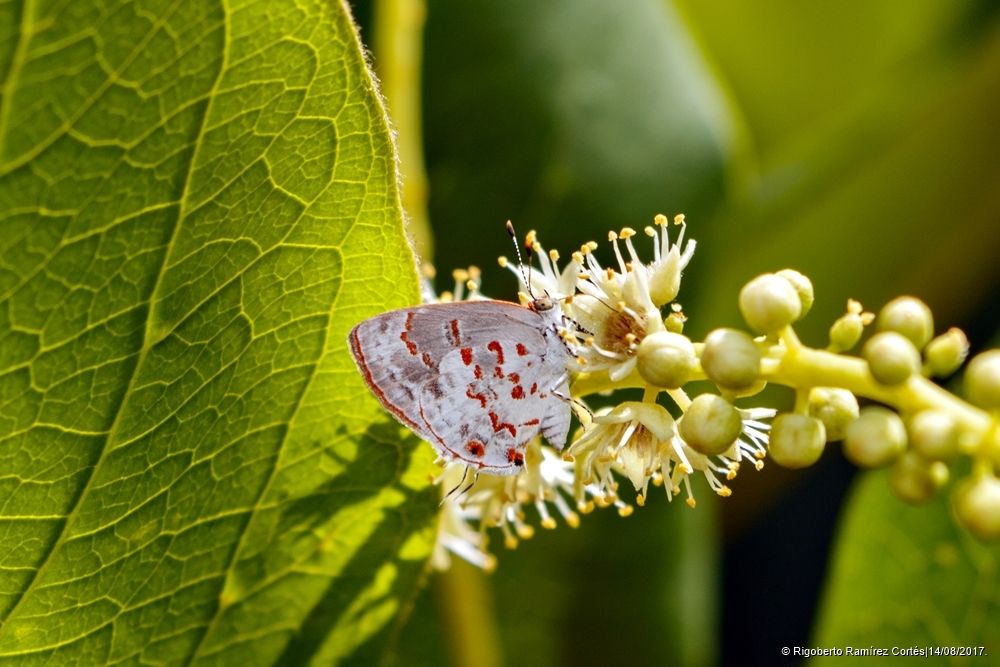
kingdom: Animalia
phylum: Arthropoda
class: Insecta
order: Lepidoptera
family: Lycaenidae
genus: Ministrymon
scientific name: Ministrymon
